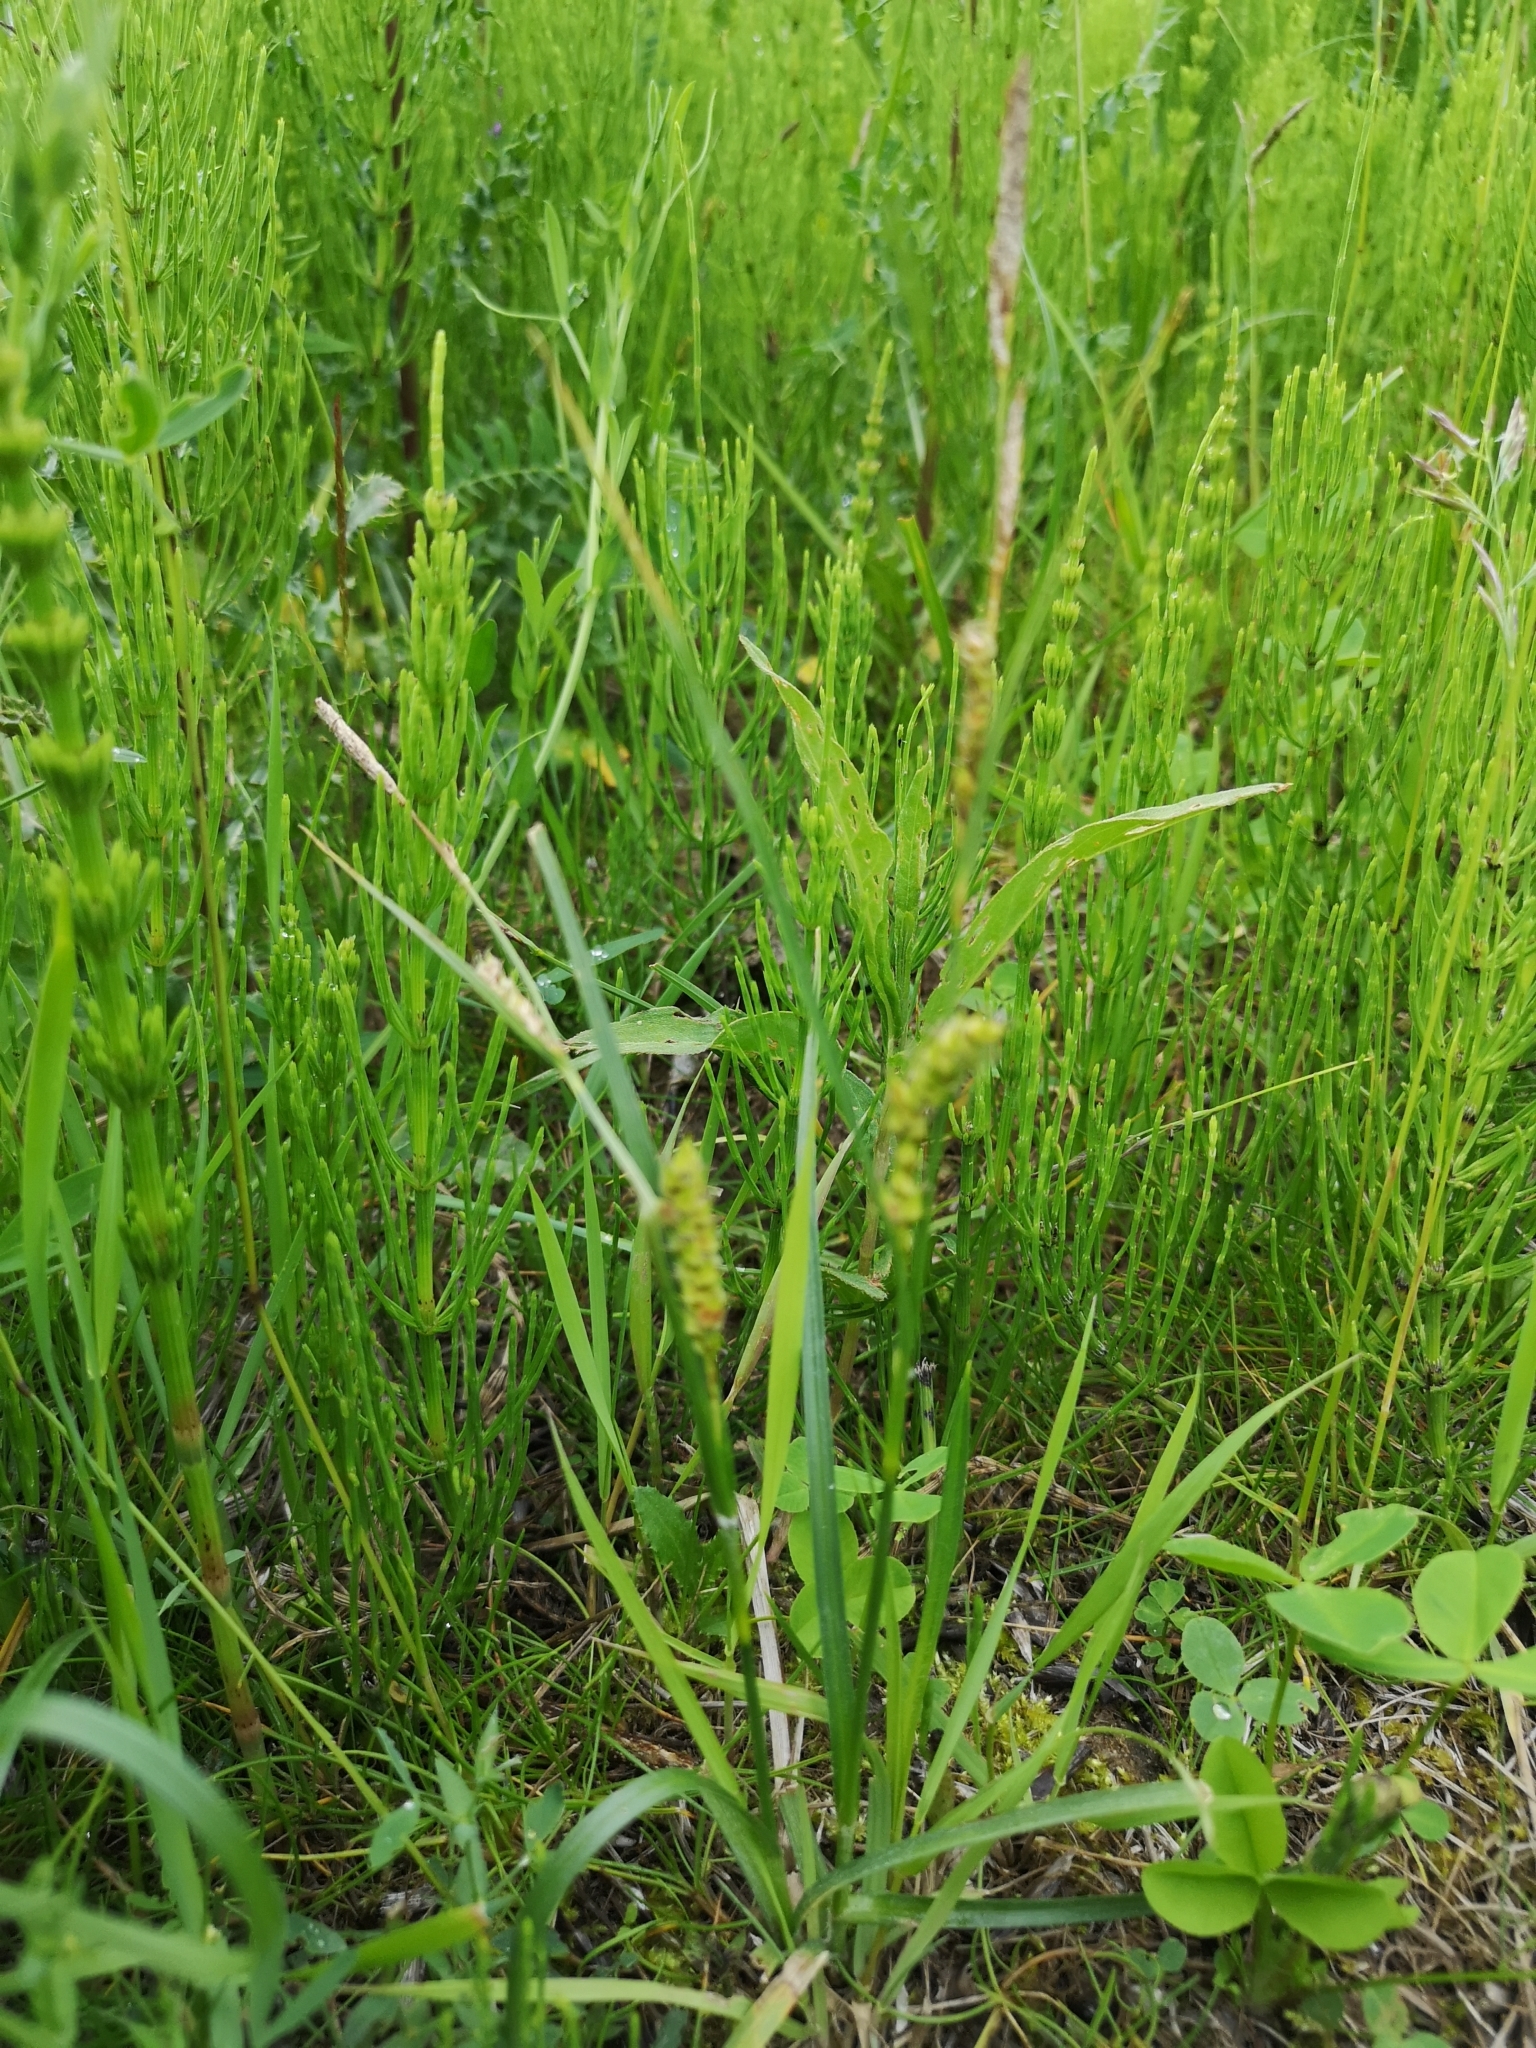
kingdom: Plantae
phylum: Tracheophyta
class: Liliopsida
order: Poales
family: Cyperaceae
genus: Carex
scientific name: Carex hirta
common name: Hairy sedge
